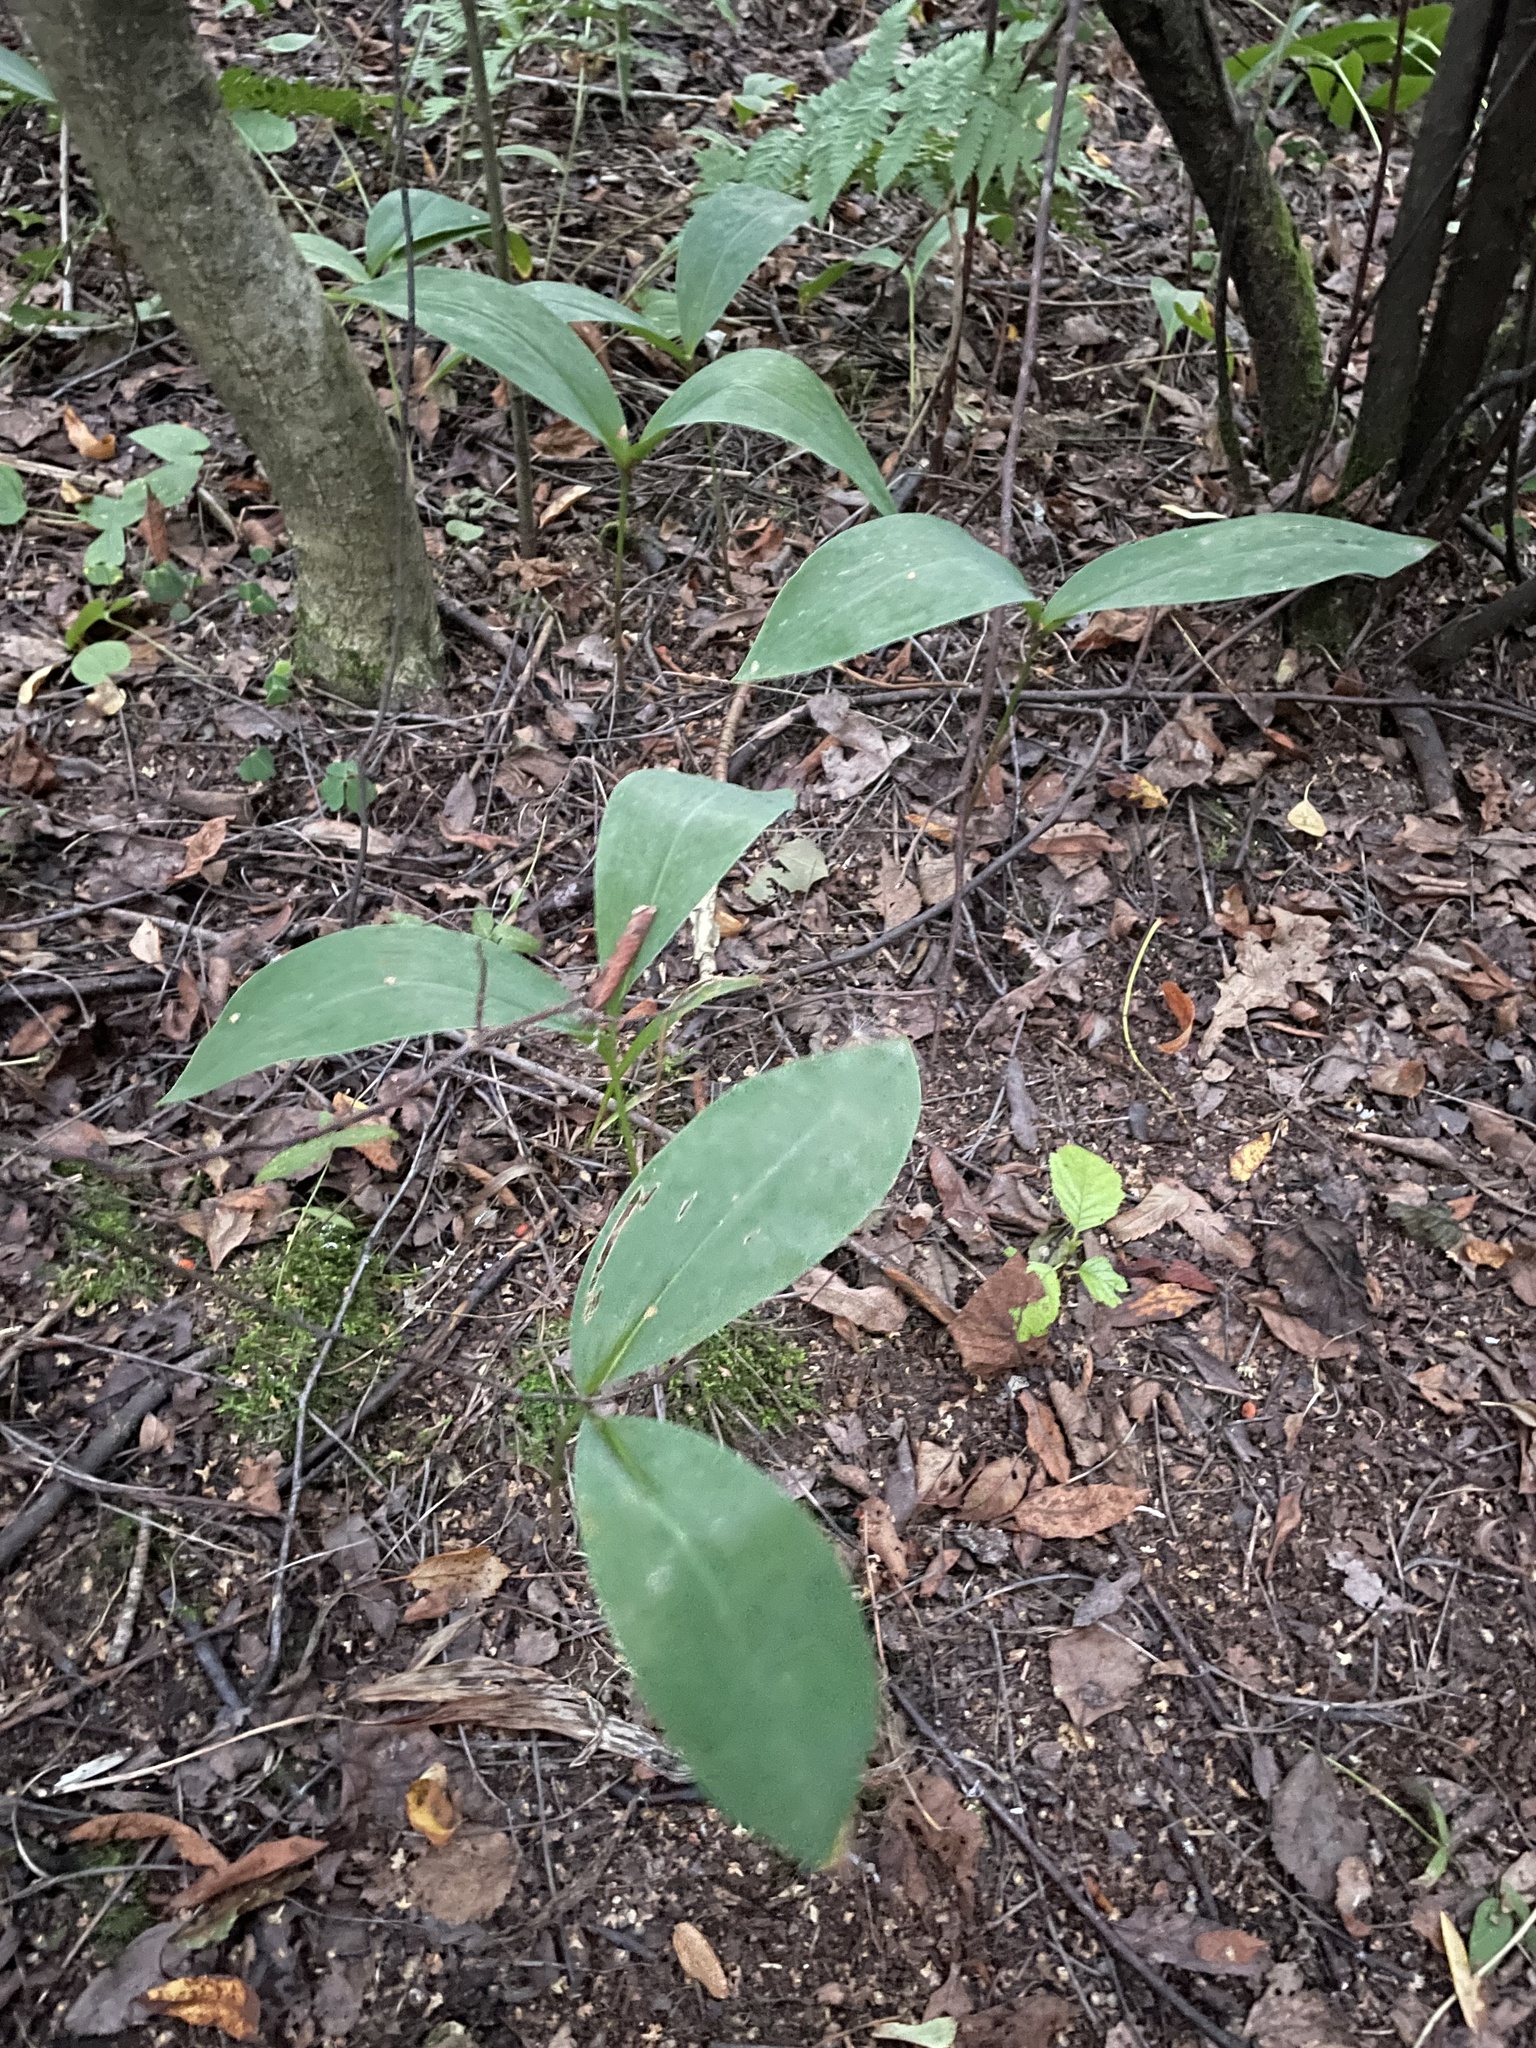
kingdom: Plantae
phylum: Tracheophyta
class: Liliopsida
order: Asparagales
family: Asparagaceae
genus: Convallaria
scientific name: Convallaria majalis
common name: Lily-of-the-valley
